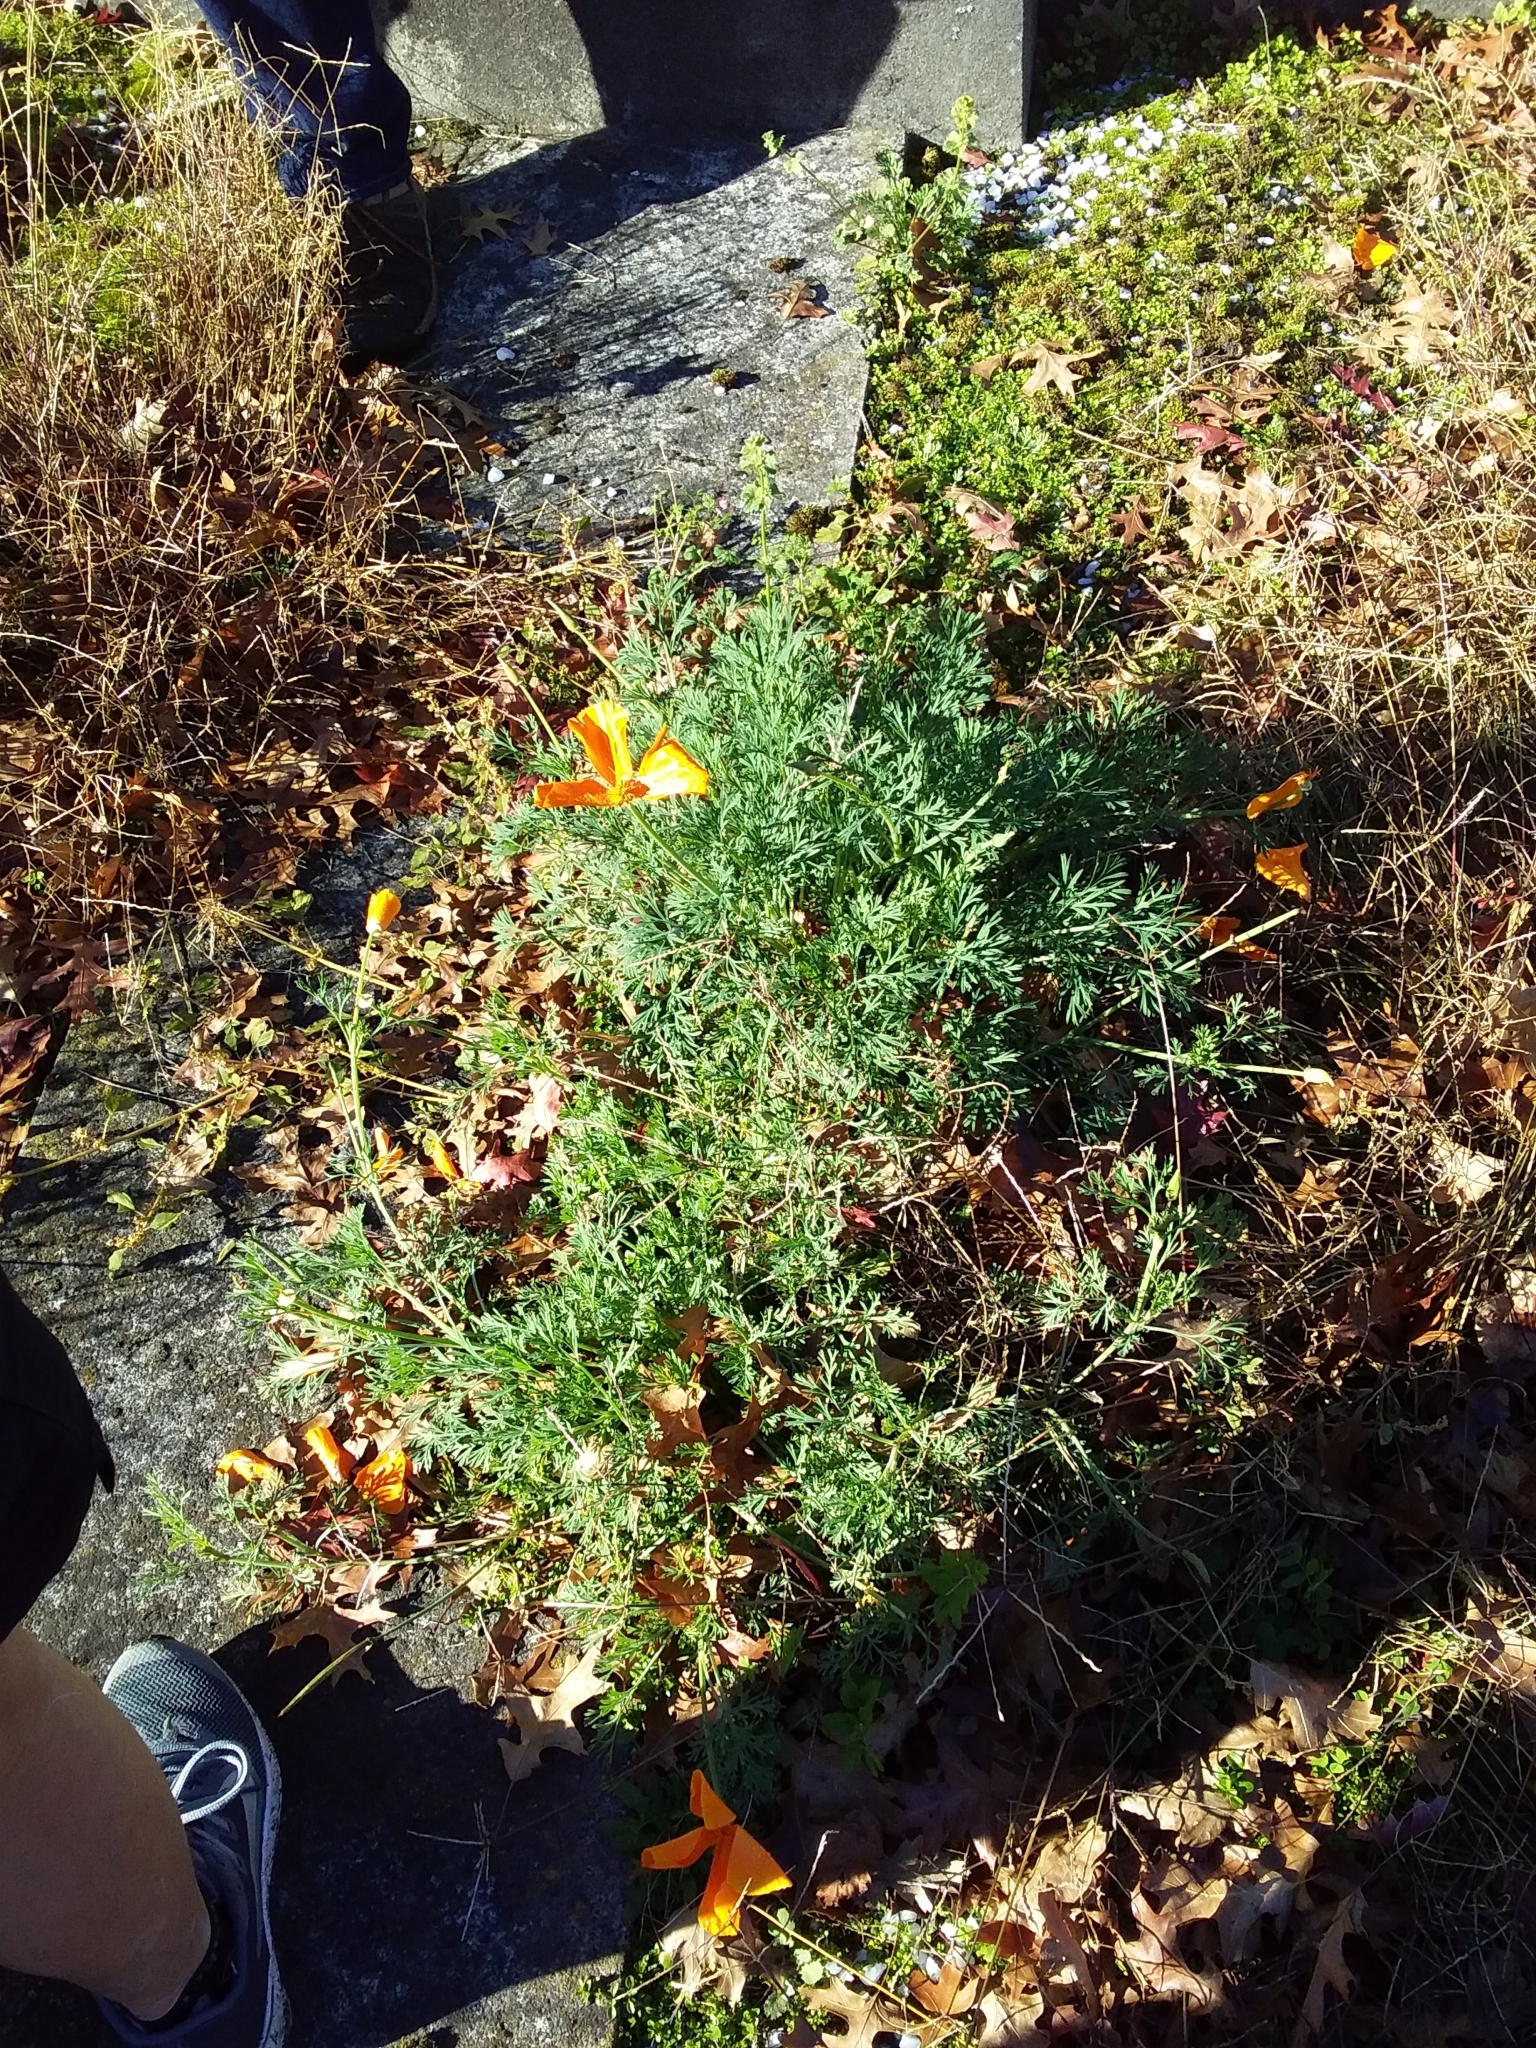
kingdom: Plantae
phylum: Tracheophyta
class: Magnoliopsida
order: Ranunculales
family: Papaveraceae
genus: Eschscholzia
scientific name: Eschscholzia californica
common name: California poppy
